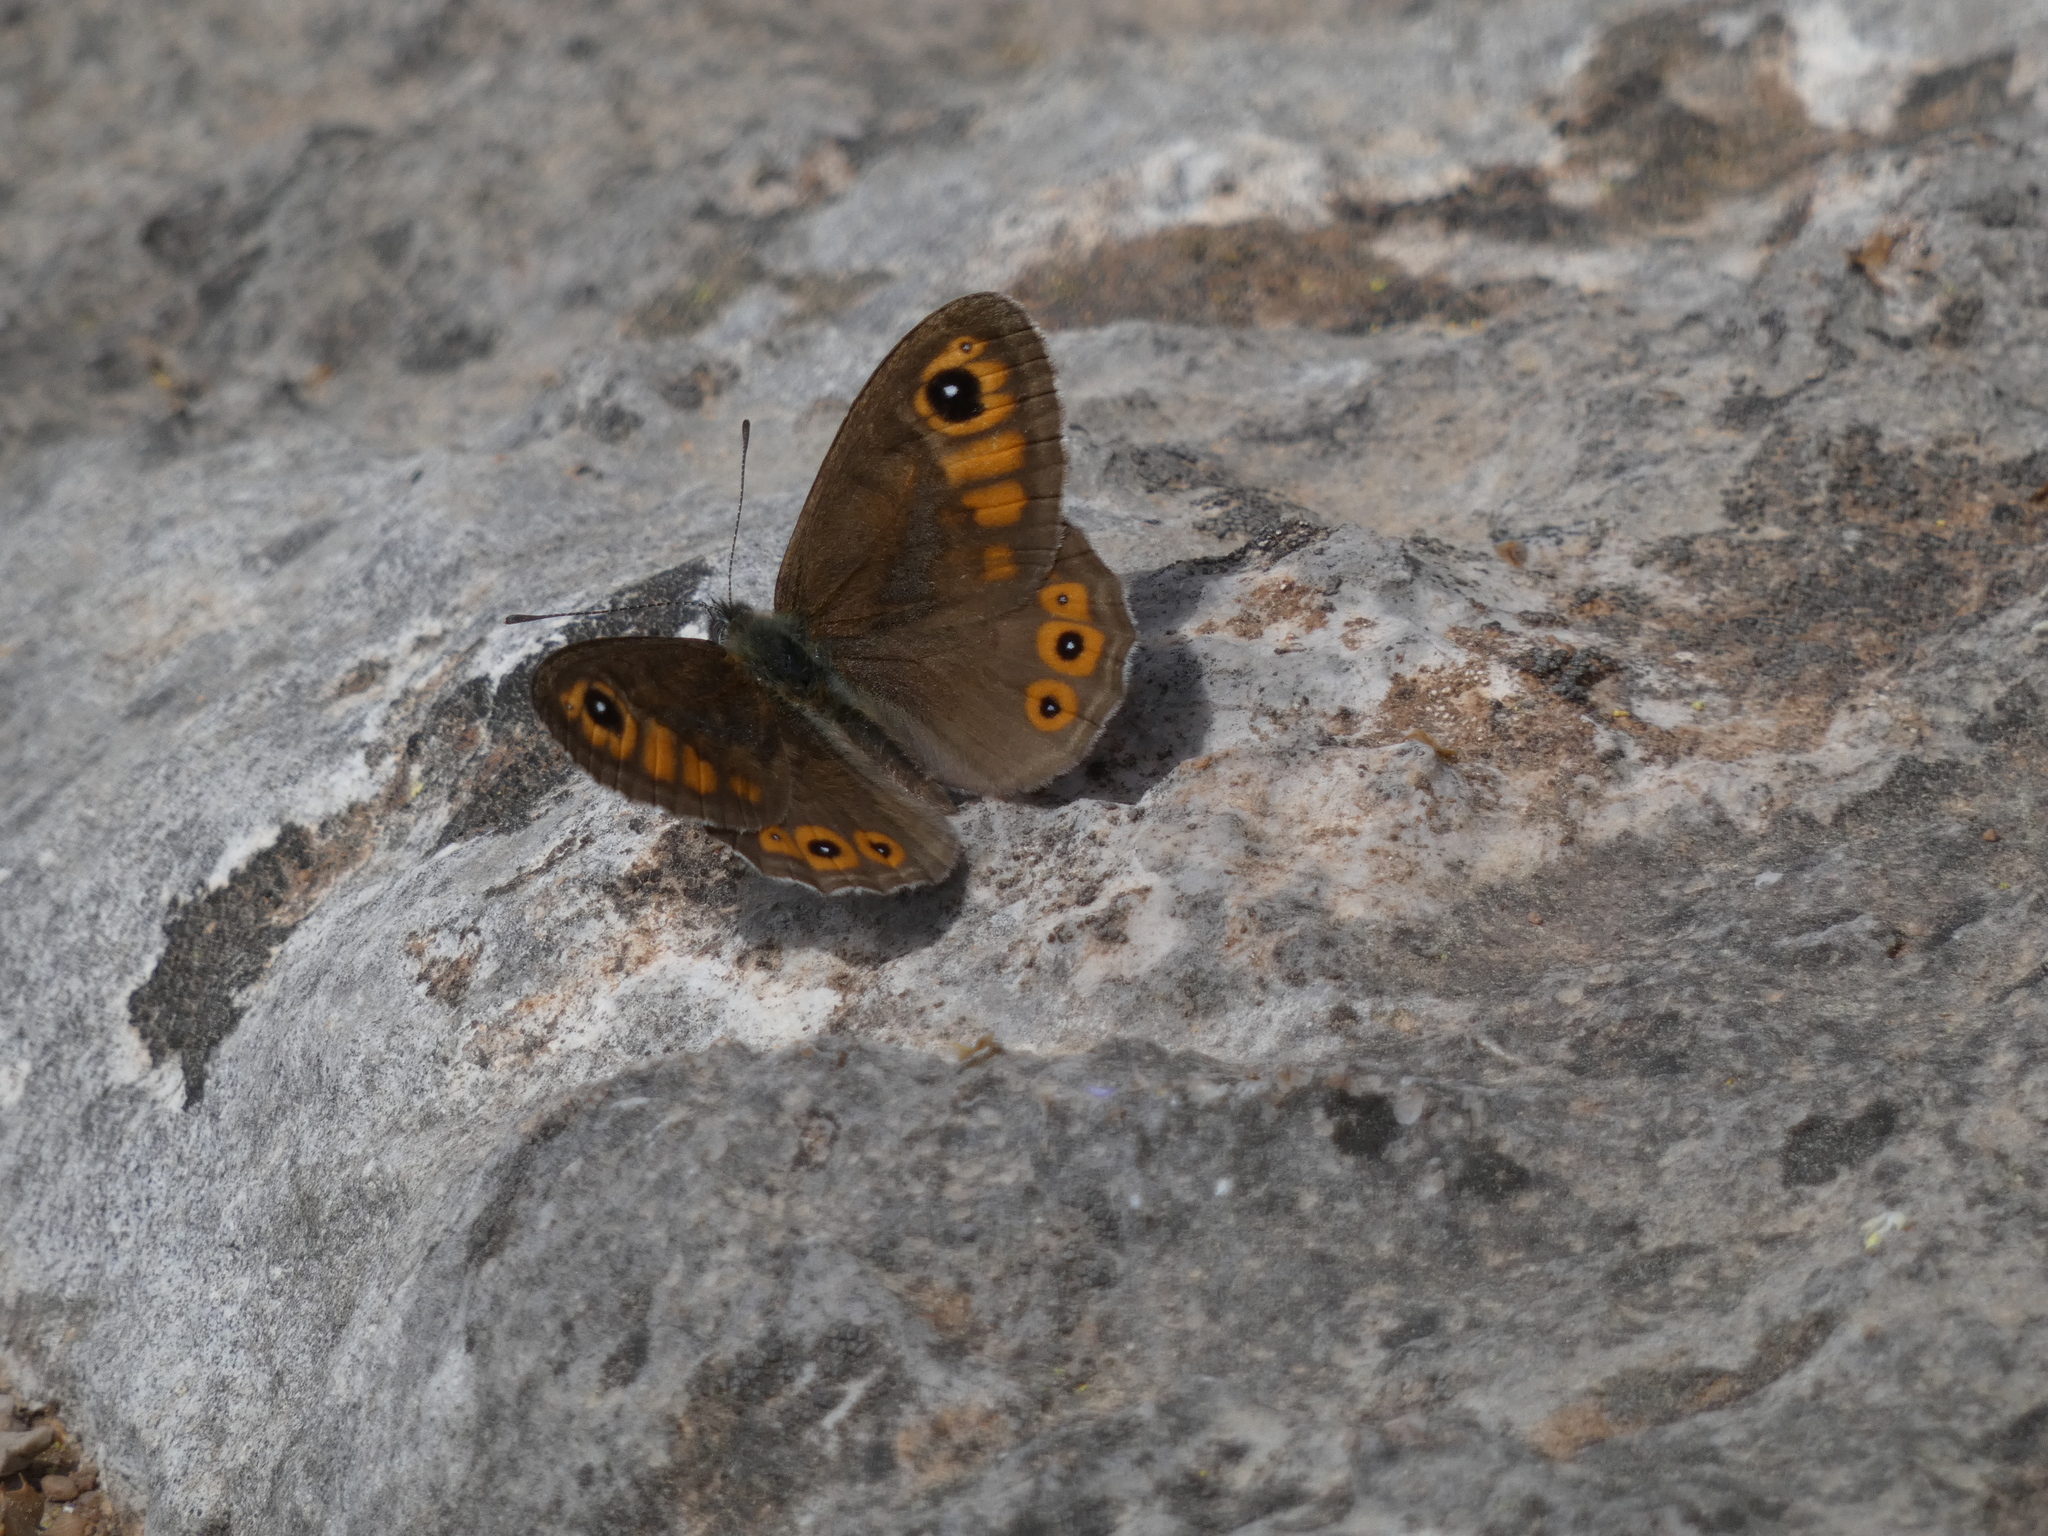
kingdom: Animalia
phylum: Arthropoda
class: Insecta
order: Lepidoptera
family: Nymphalidae
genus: Pararge
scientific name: Pararge Lasiommata maera
